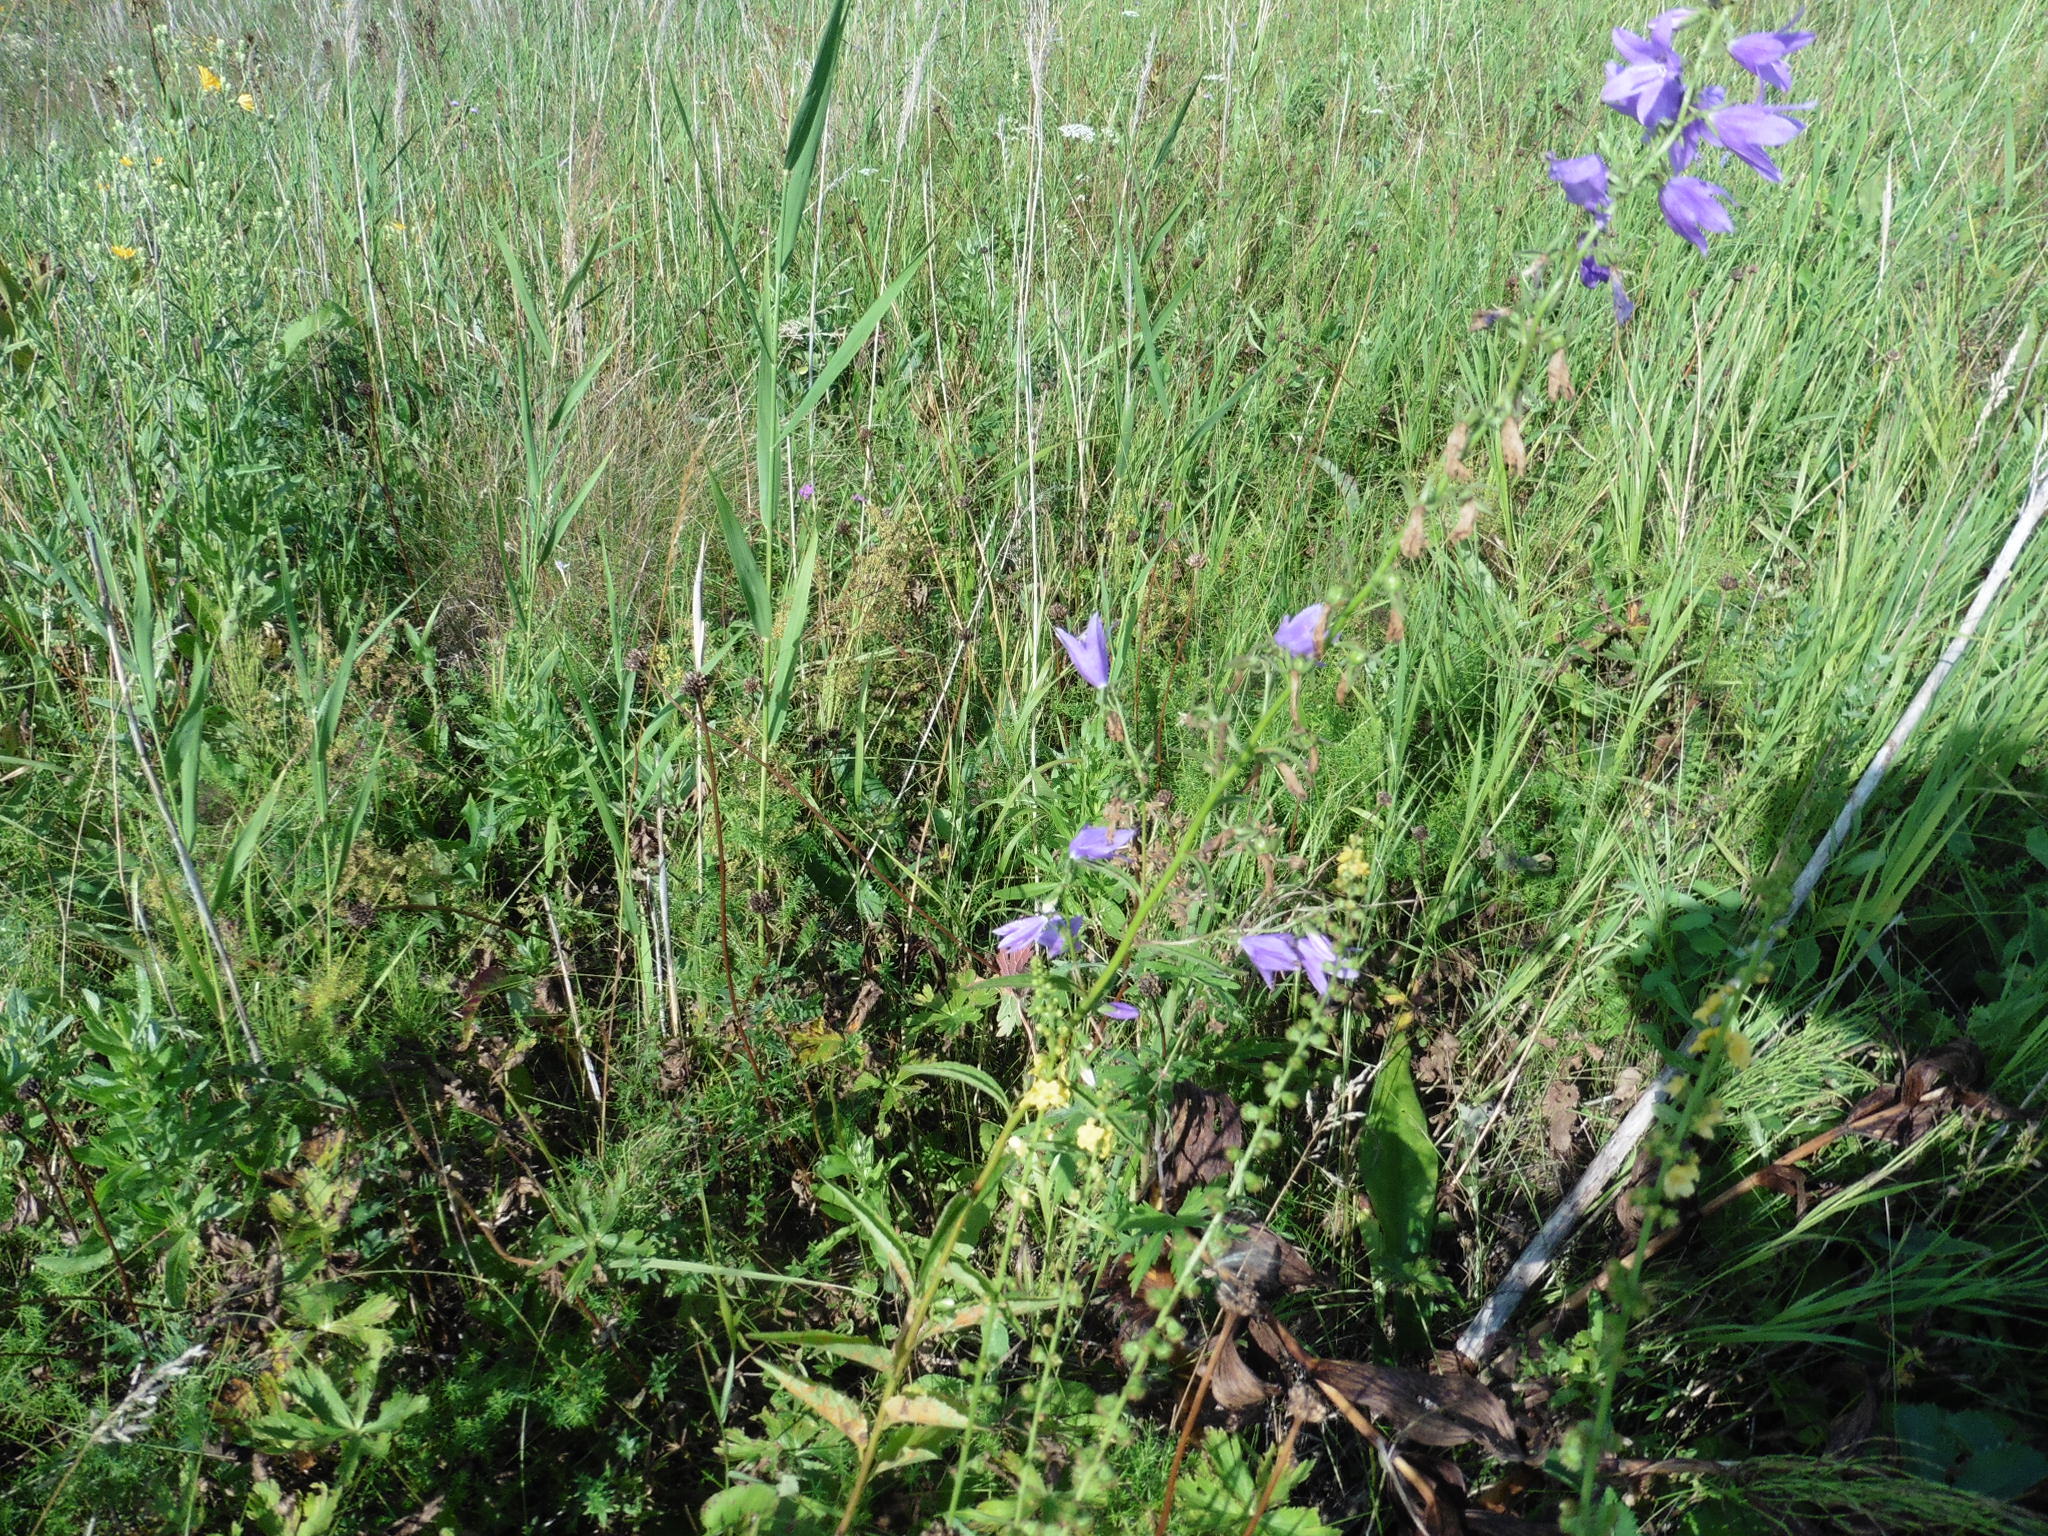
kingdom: Plantae
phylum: Tracheophyta
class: Magnoliopsida
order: Asterales
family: Campanulaceae
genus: Campanula
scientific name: Campanula rapunculoides
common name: Creeping bellflower
